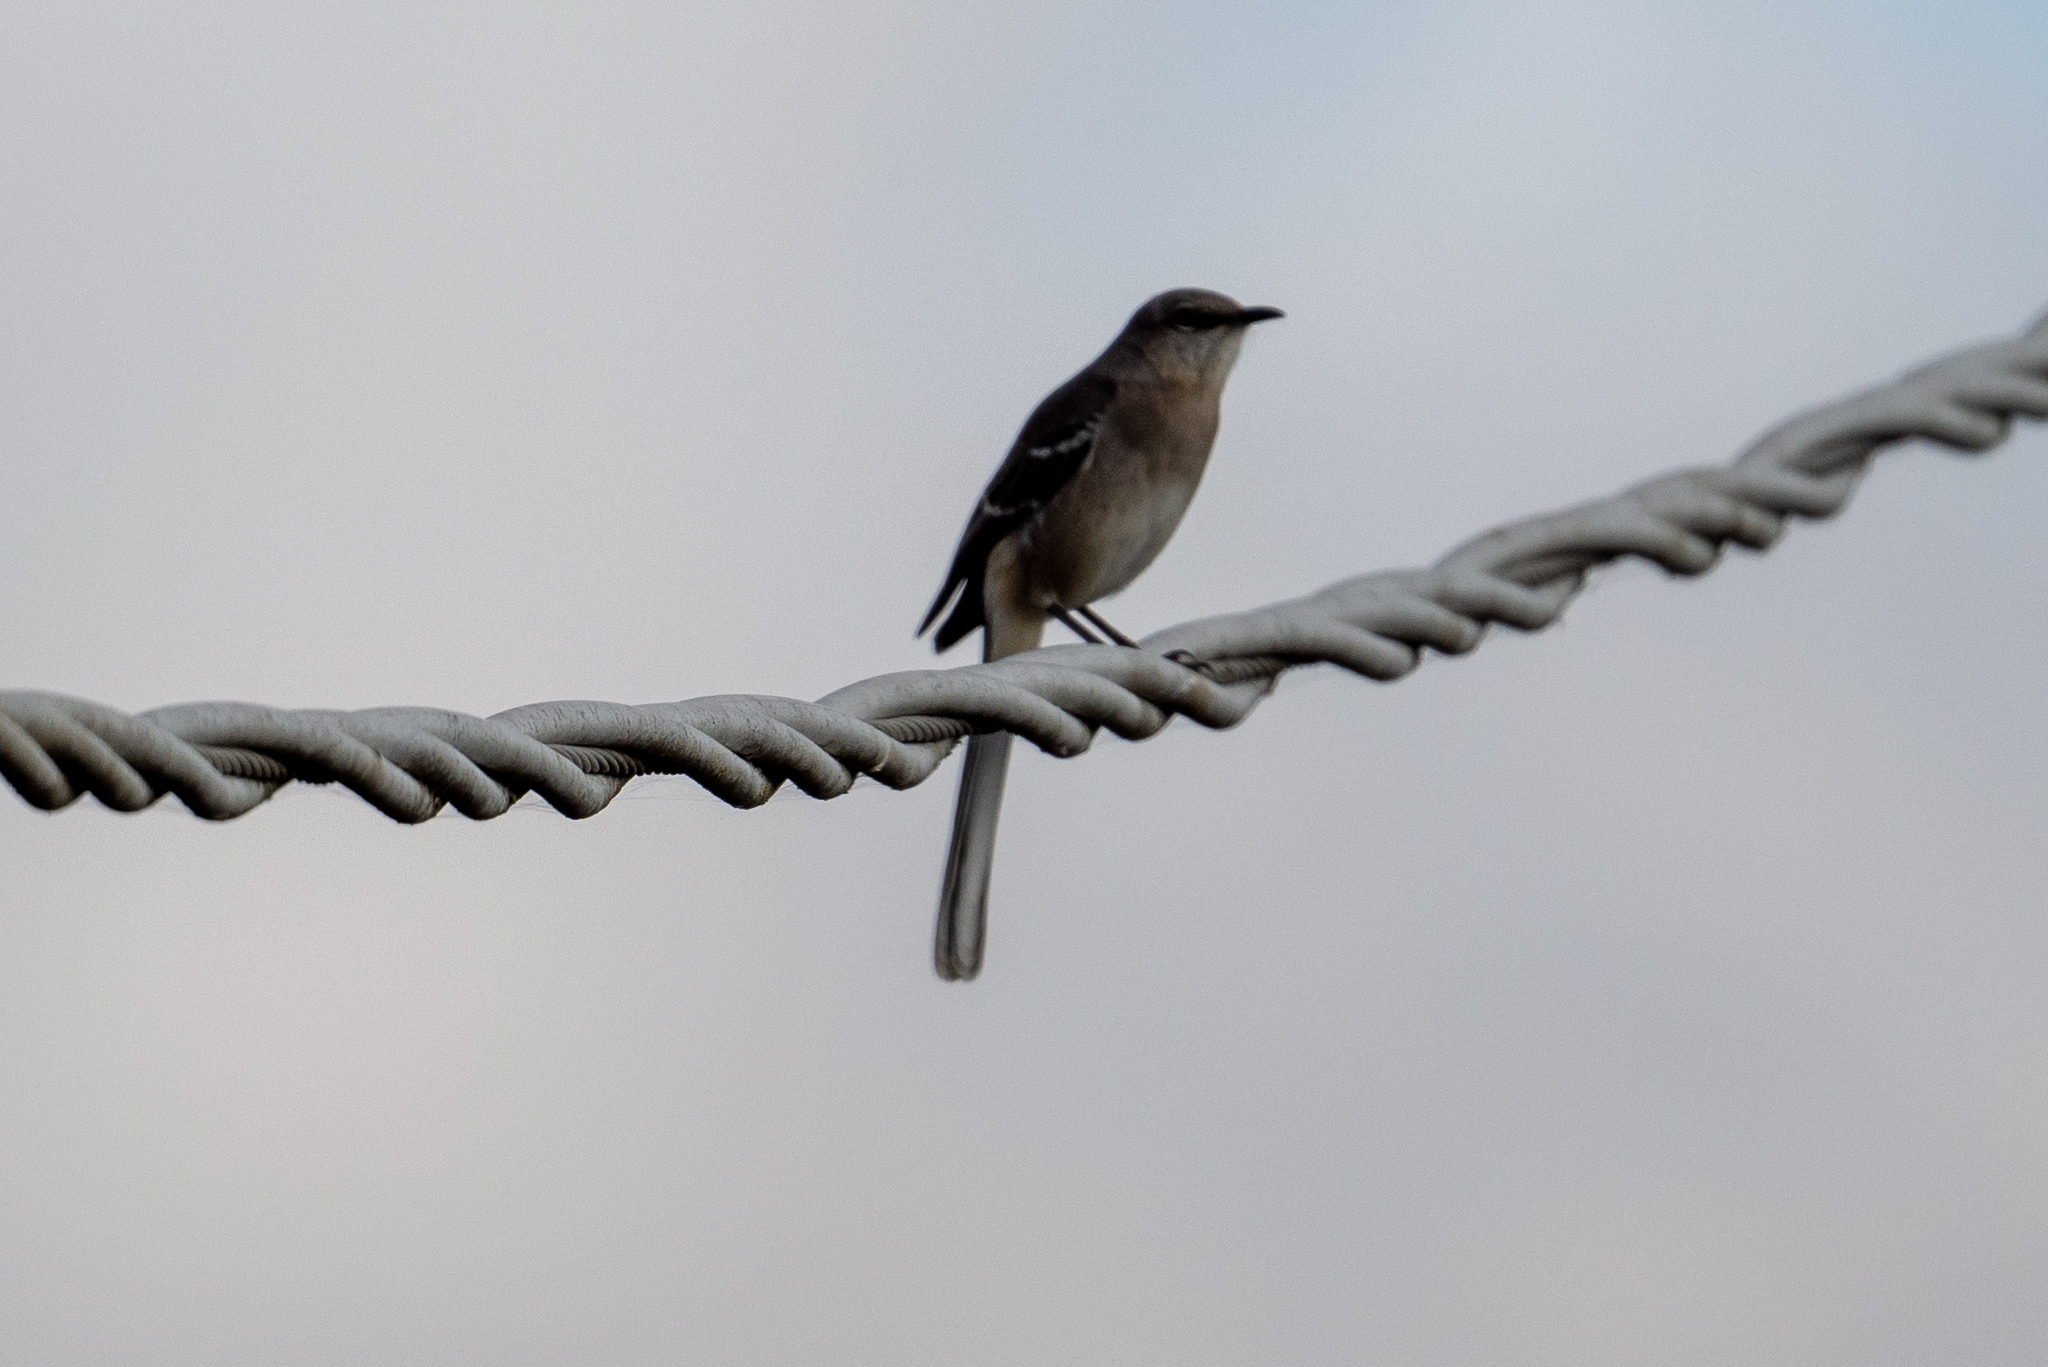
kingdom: Animalia
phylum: Chordata
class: Aves
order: Passeriformes
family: Mimidae
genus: Mimus
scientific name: Mimus polyglottos
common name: Northern mockingbird
